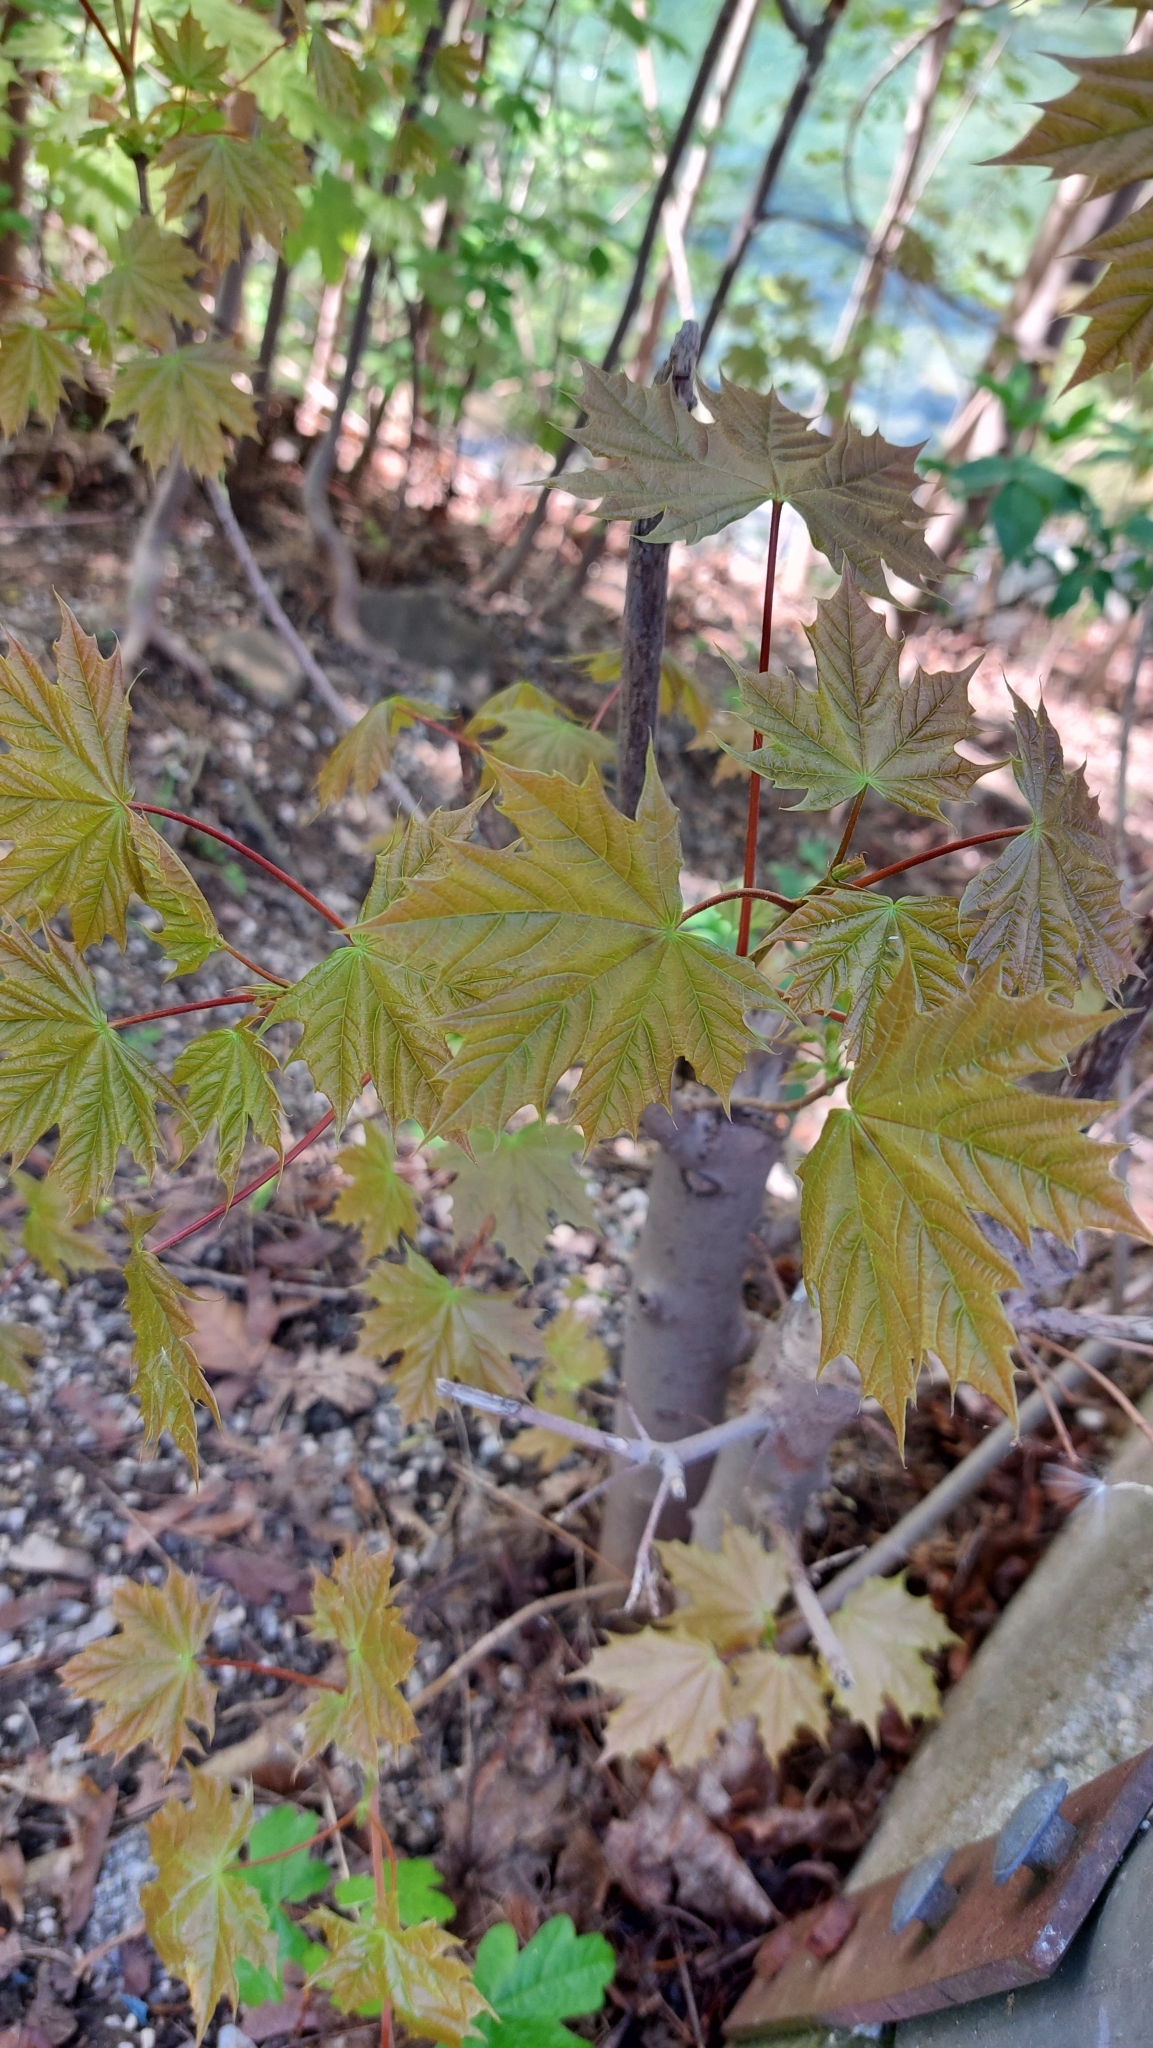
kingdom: Plantae
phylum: Tracheophyta
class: Magnoliopsida
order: Sapindales
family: Sapindaceae
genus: Acer
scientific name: Acer platanoides
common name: Norway maple
